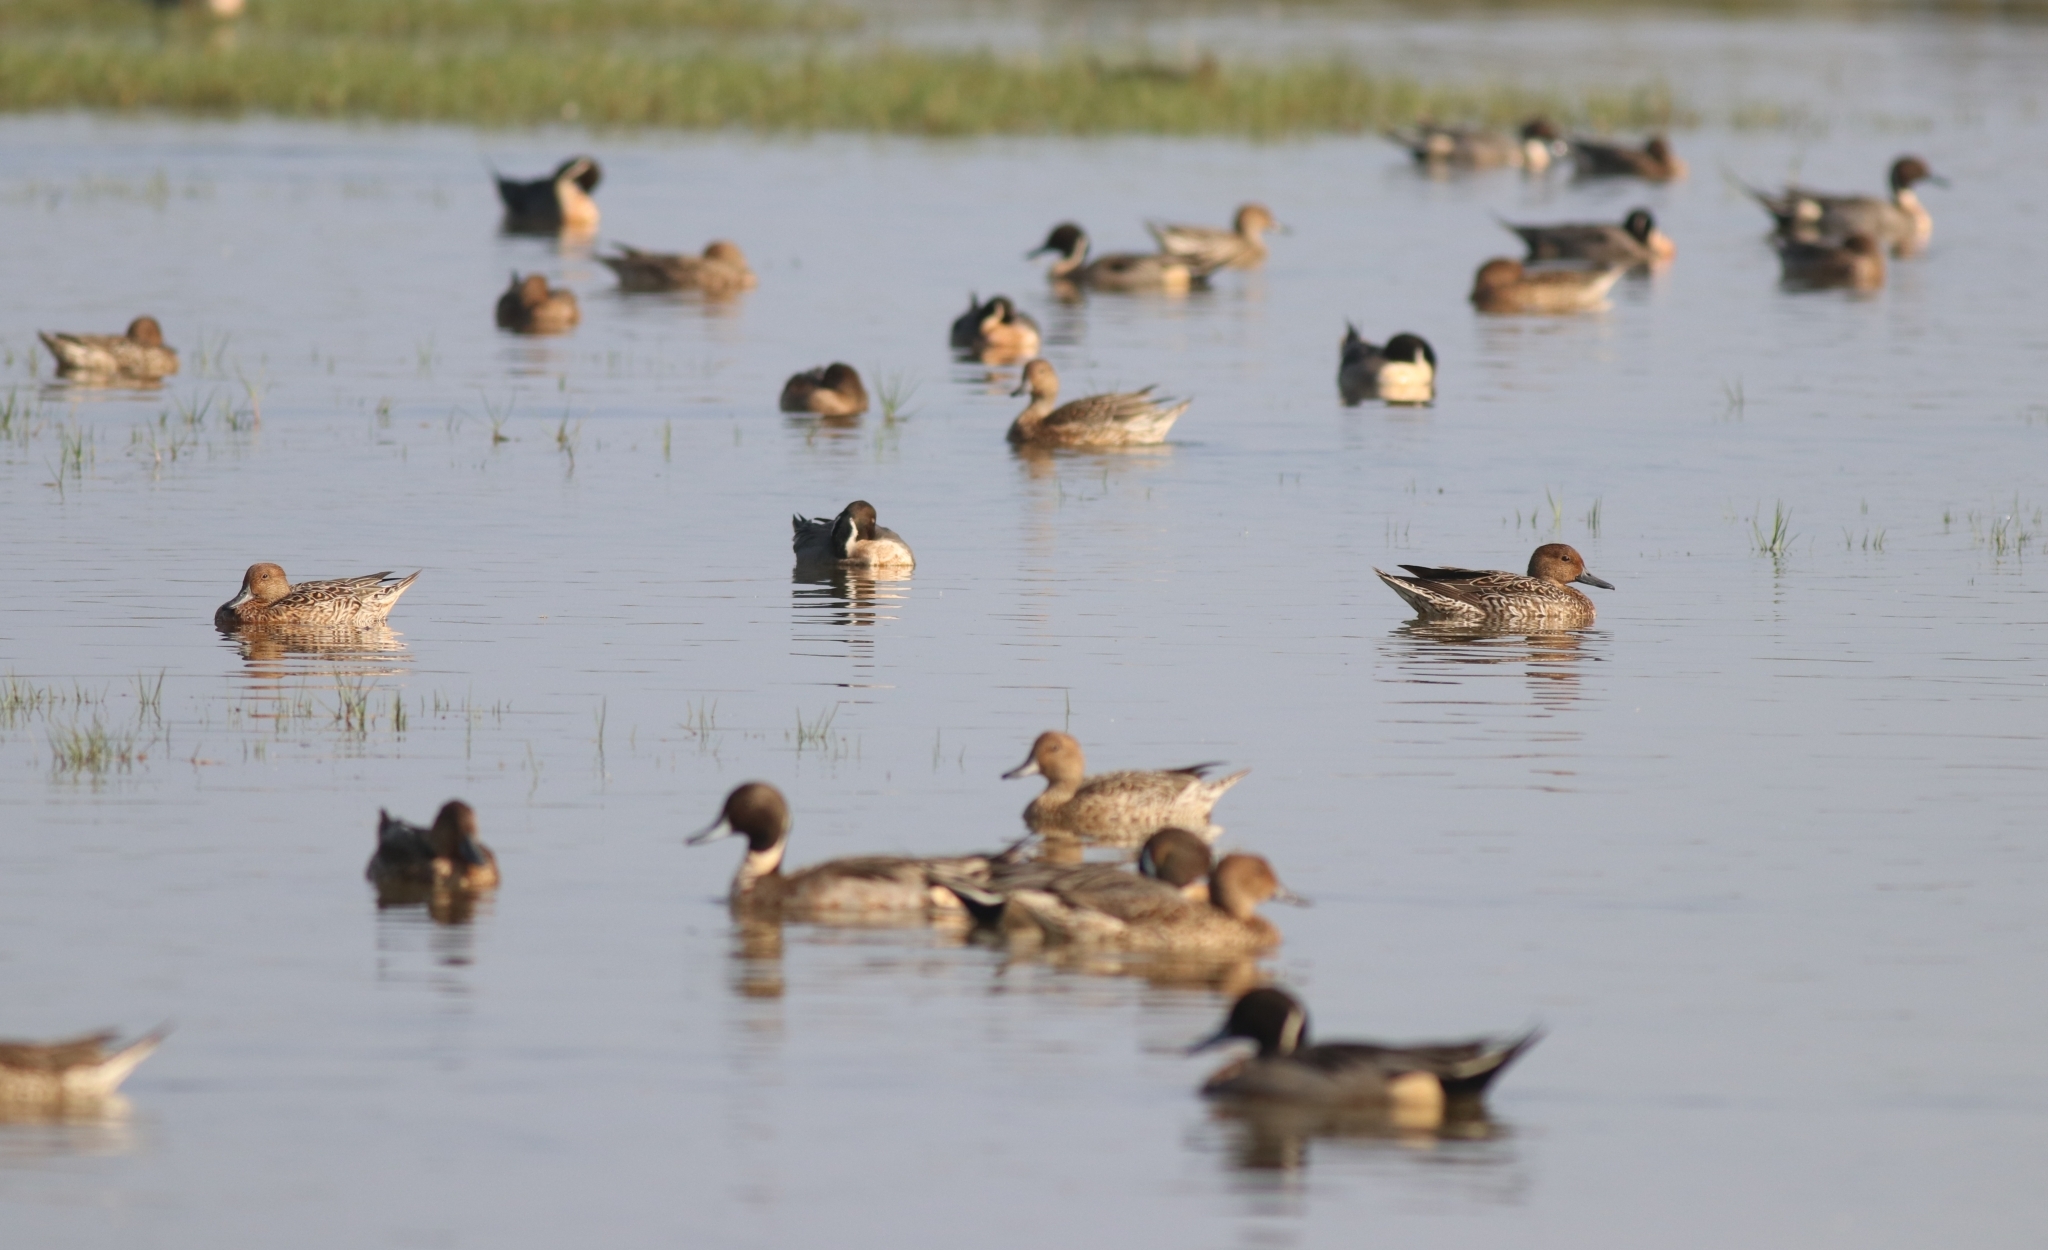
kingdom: Animalia
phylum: Chordata
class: Aves
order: Anseriformes
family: Anatidae
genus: Anas
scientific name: Anas acuta
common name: Northern pintail
